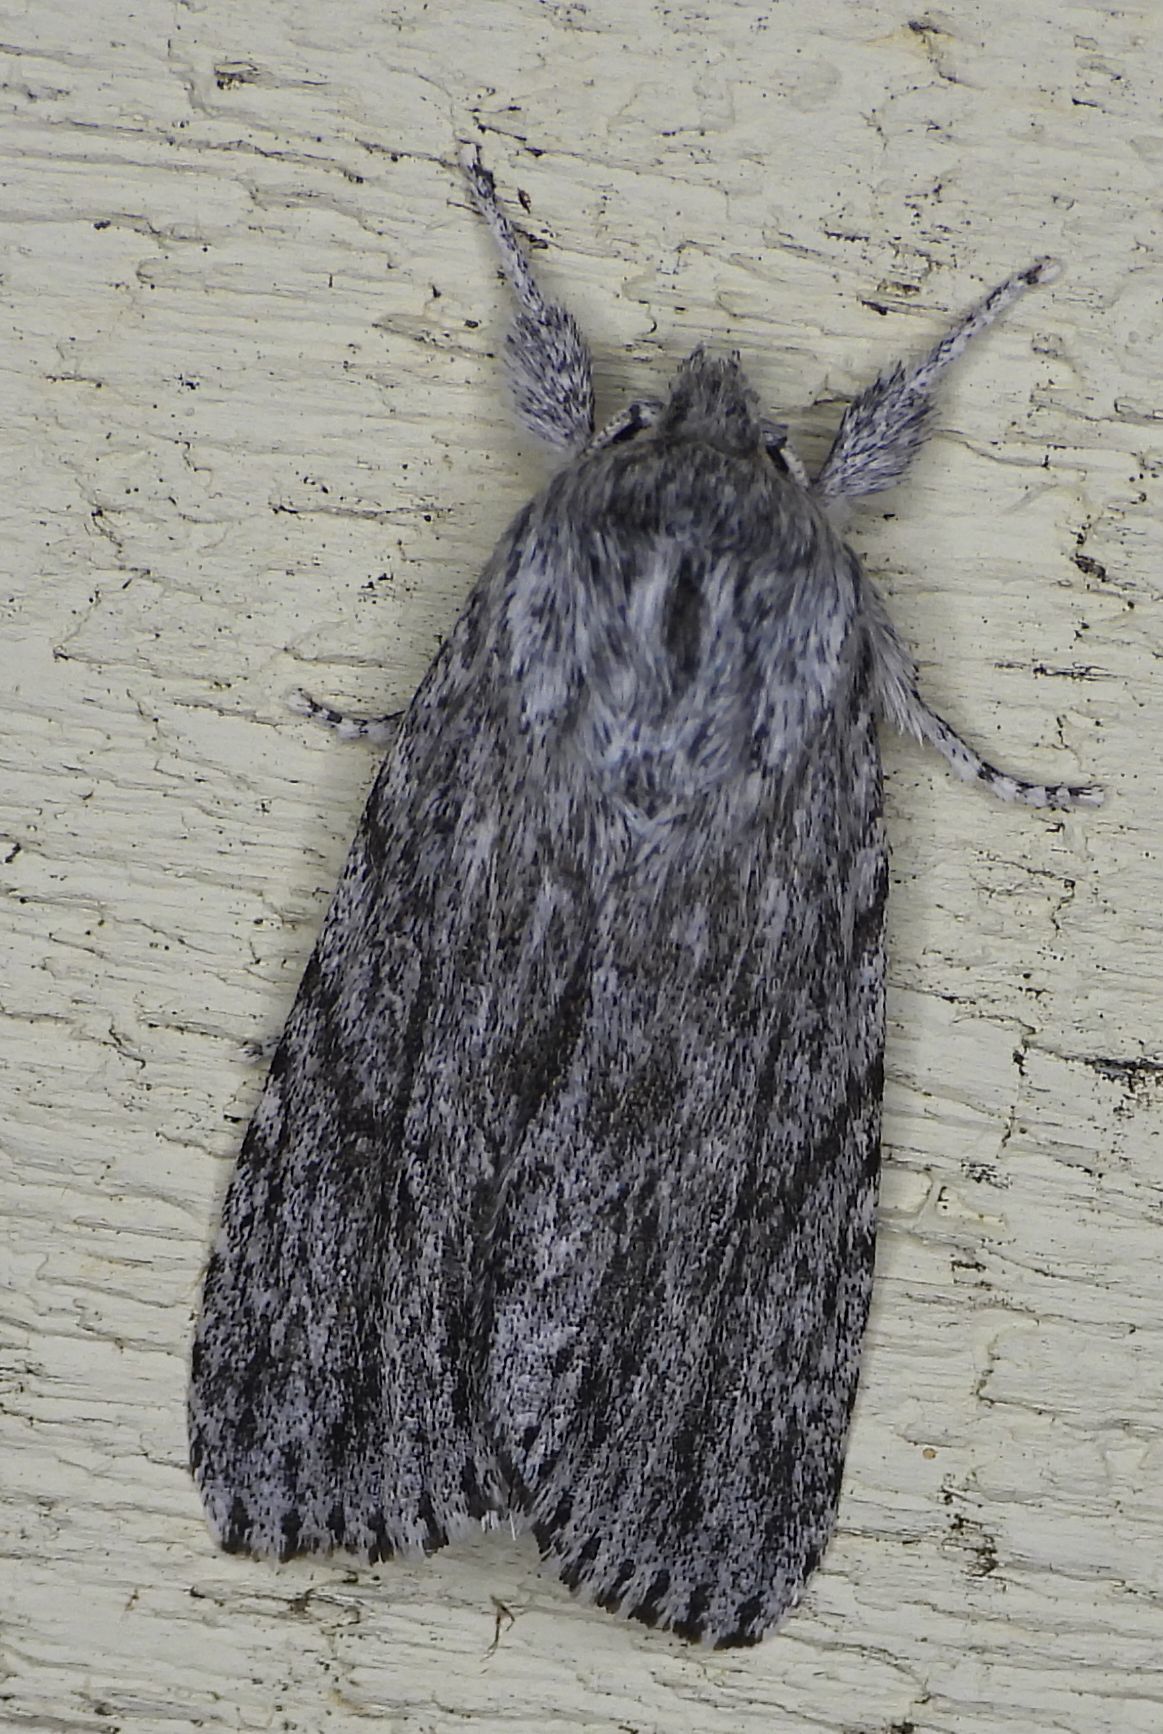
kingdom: Animalia
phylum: Arthropoda
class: Insecta
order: Lepidoptera
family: Noctuidae
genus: Acronicta
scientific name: Acronicta oblinita
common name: Smeared dagger
